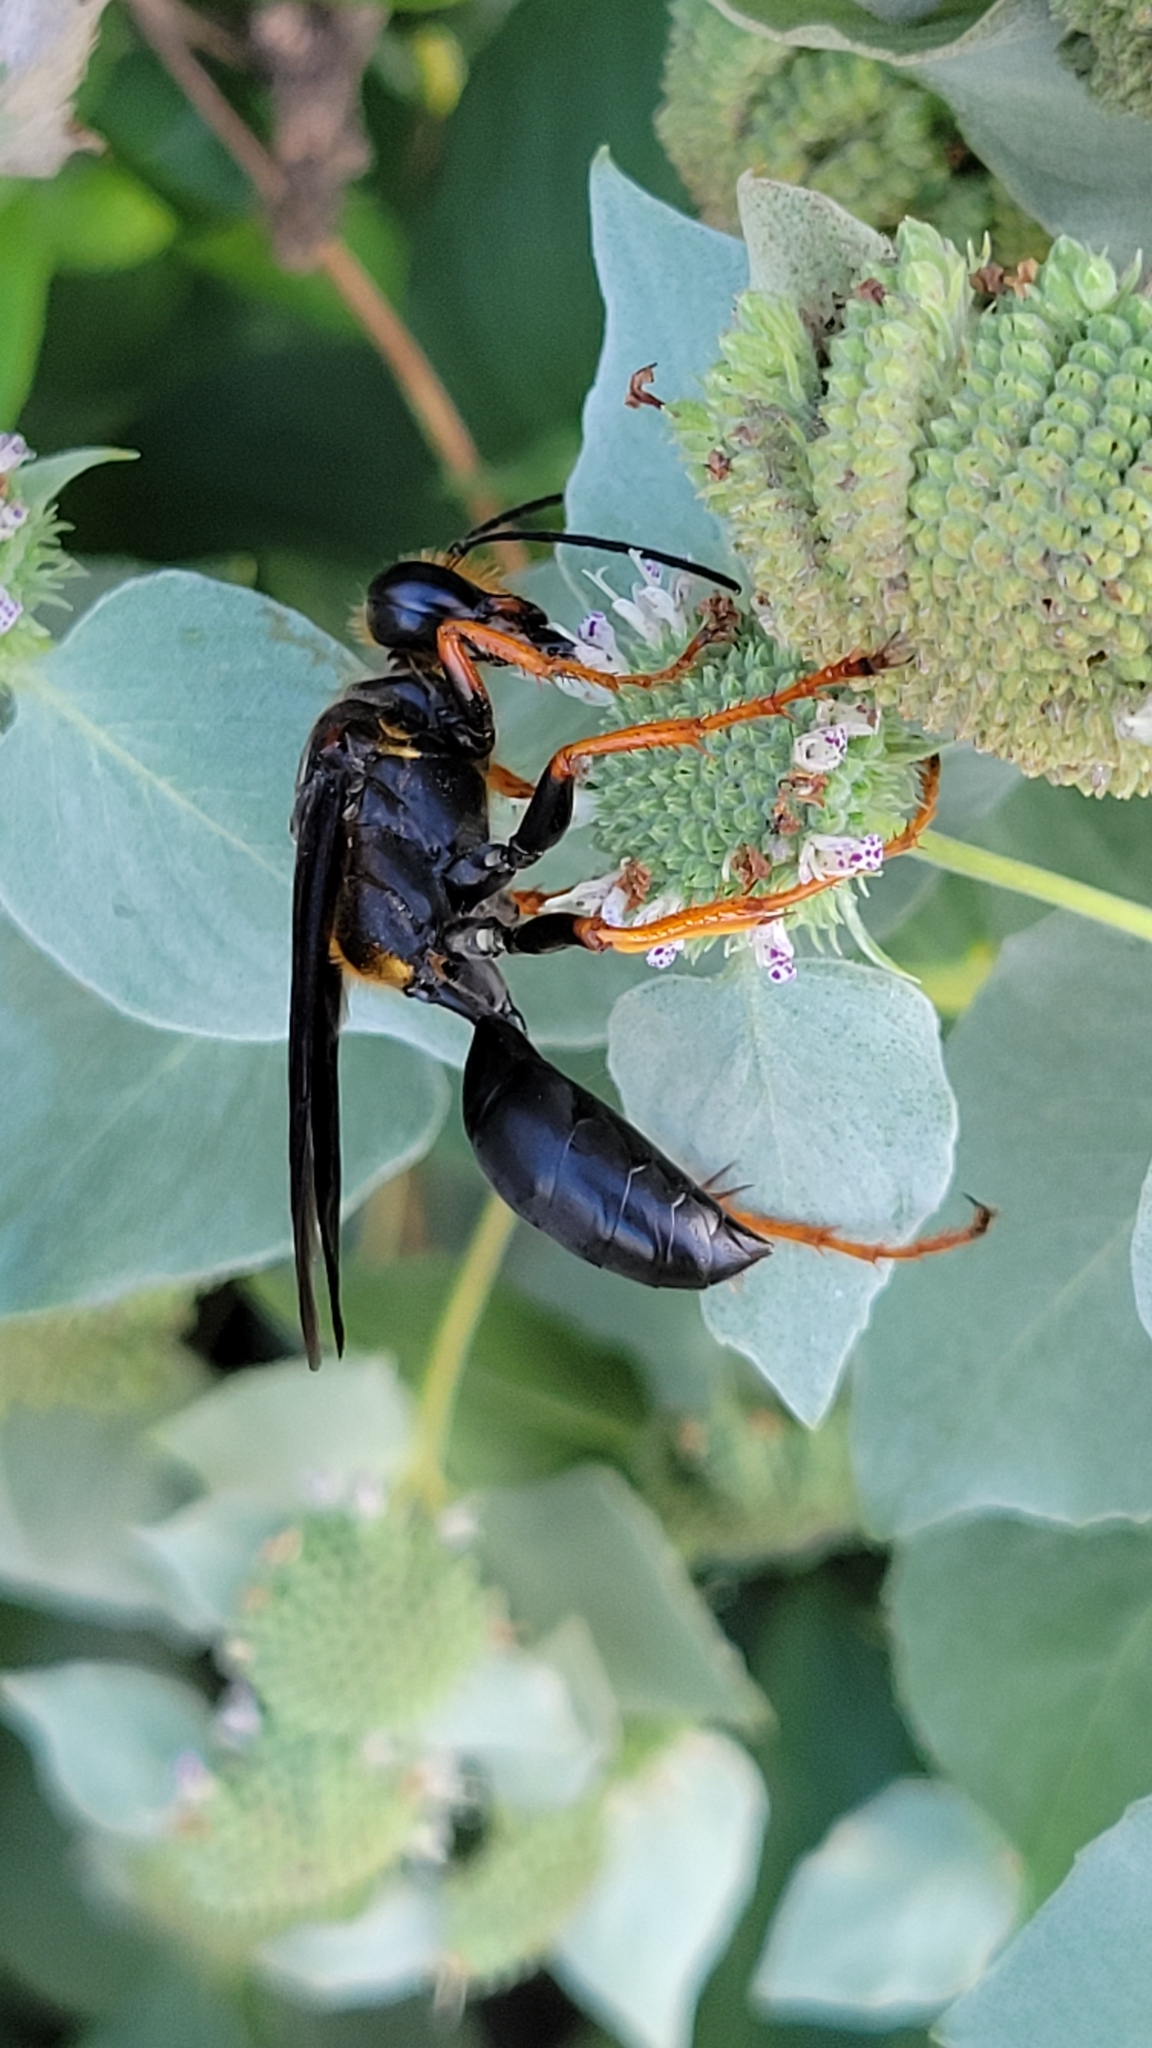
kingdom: Animalia
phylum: Arthropoda
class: Insecta
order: Hymenoptera
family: Sphecidae
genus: Sphex
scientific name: Sphex flavovestitus
